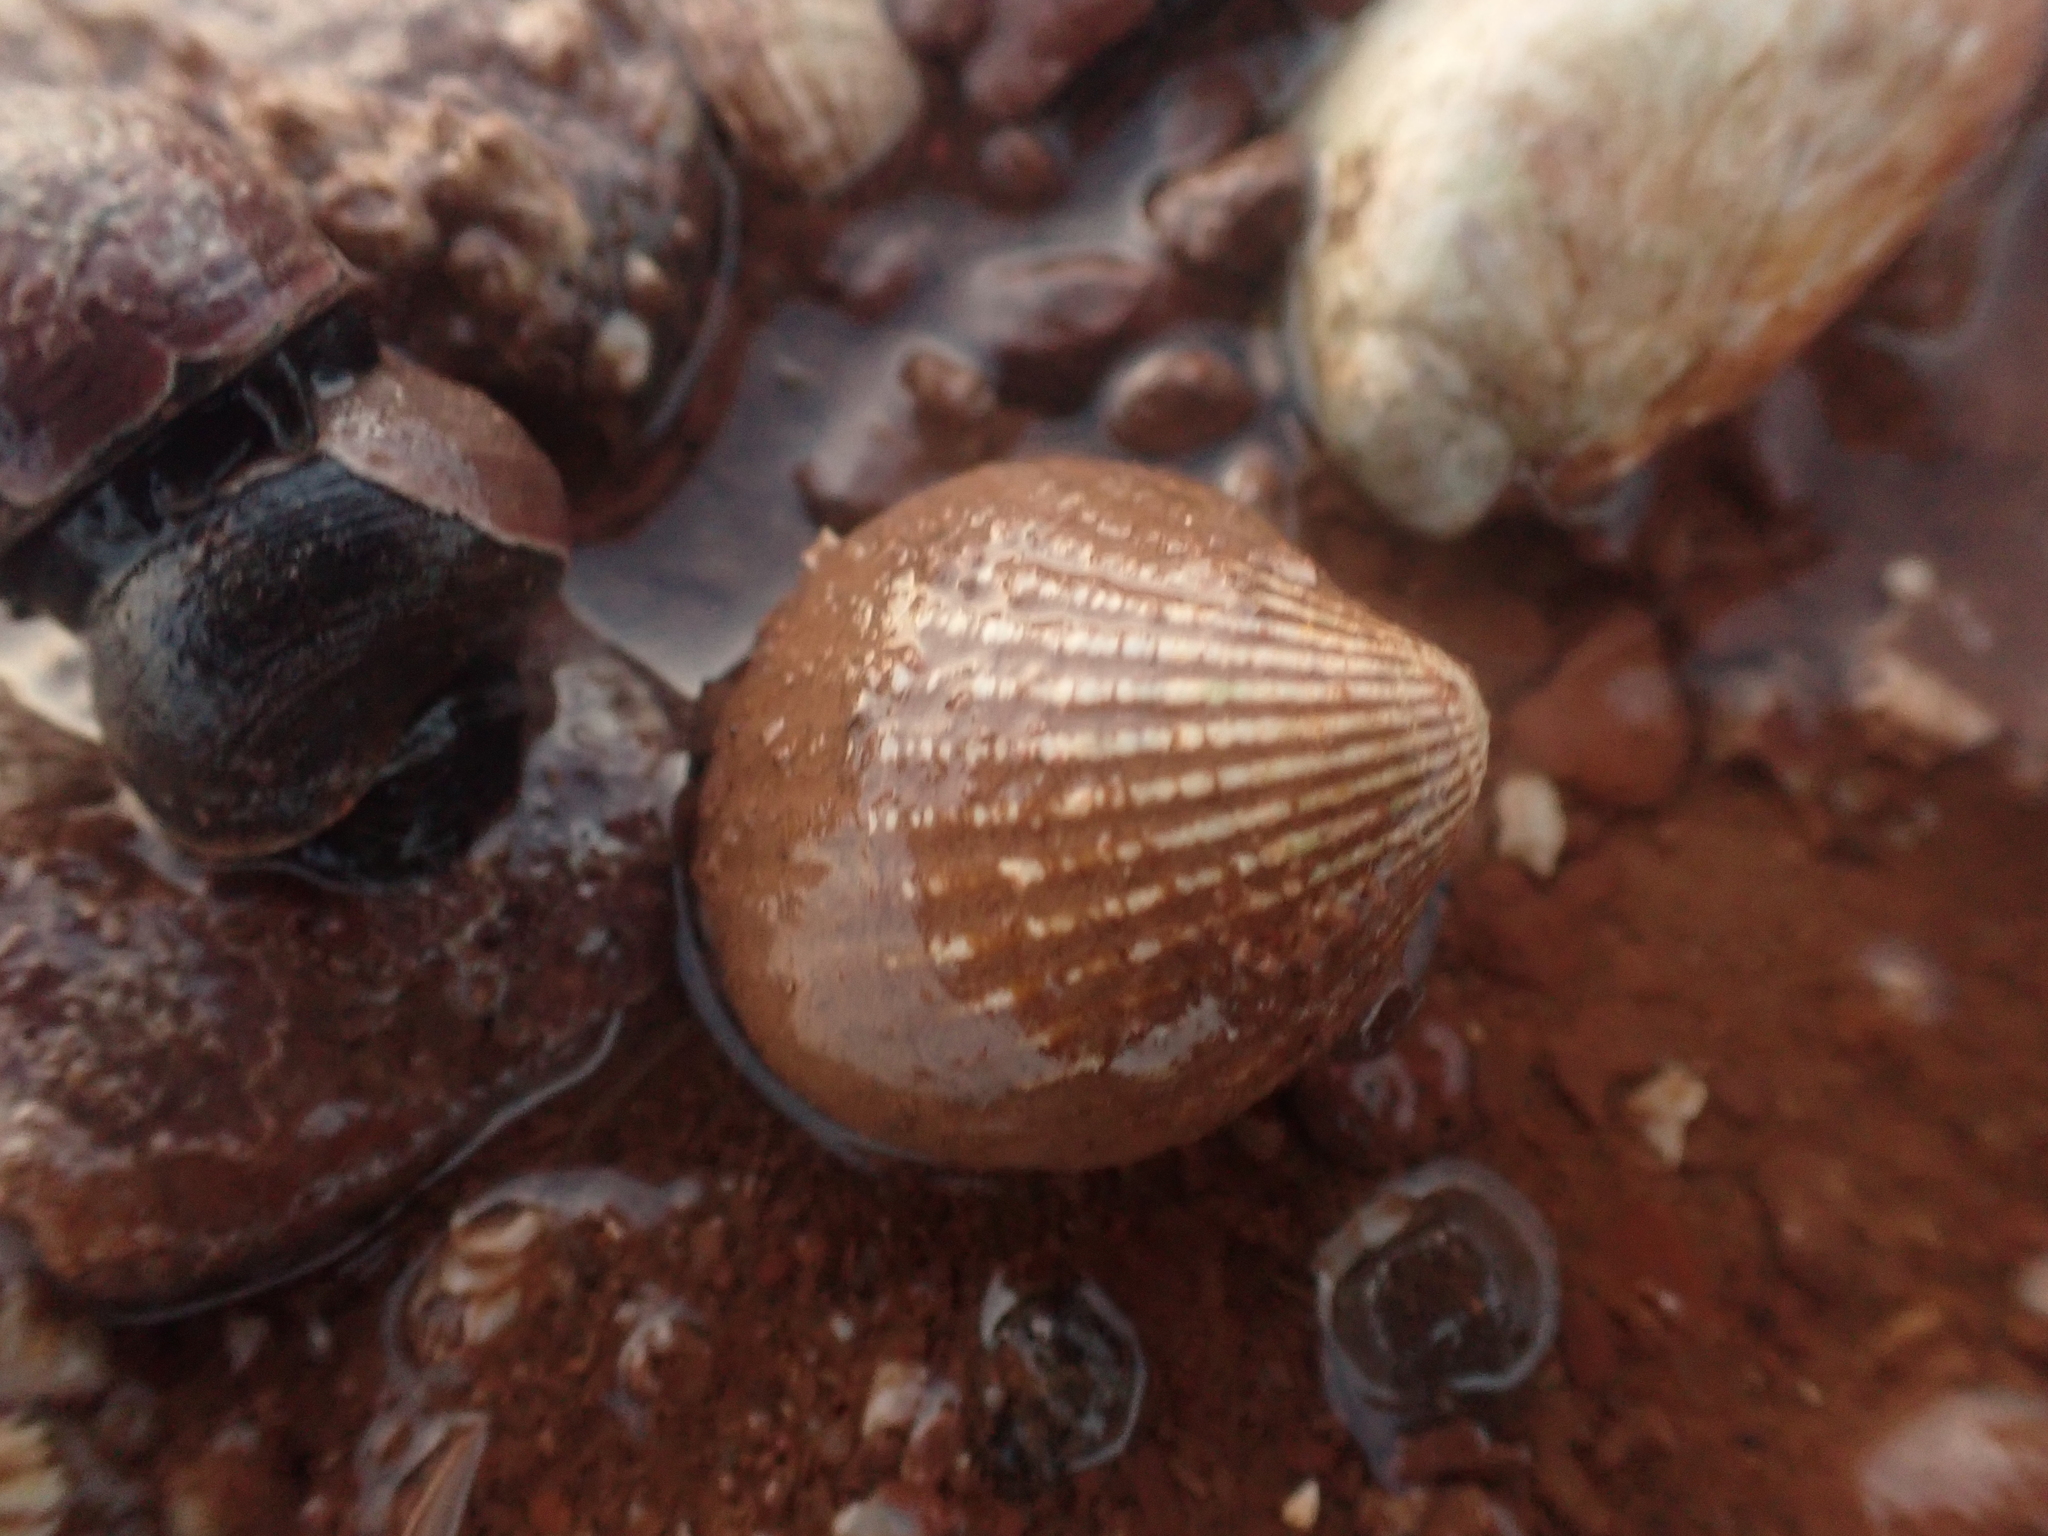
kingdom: Animalia
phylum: Mollusca
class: Bivalvia
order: Carditida
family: Carditidae
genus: Cyclocardia
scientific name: Cyclocardia borealis
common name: Northern cyclocardia
